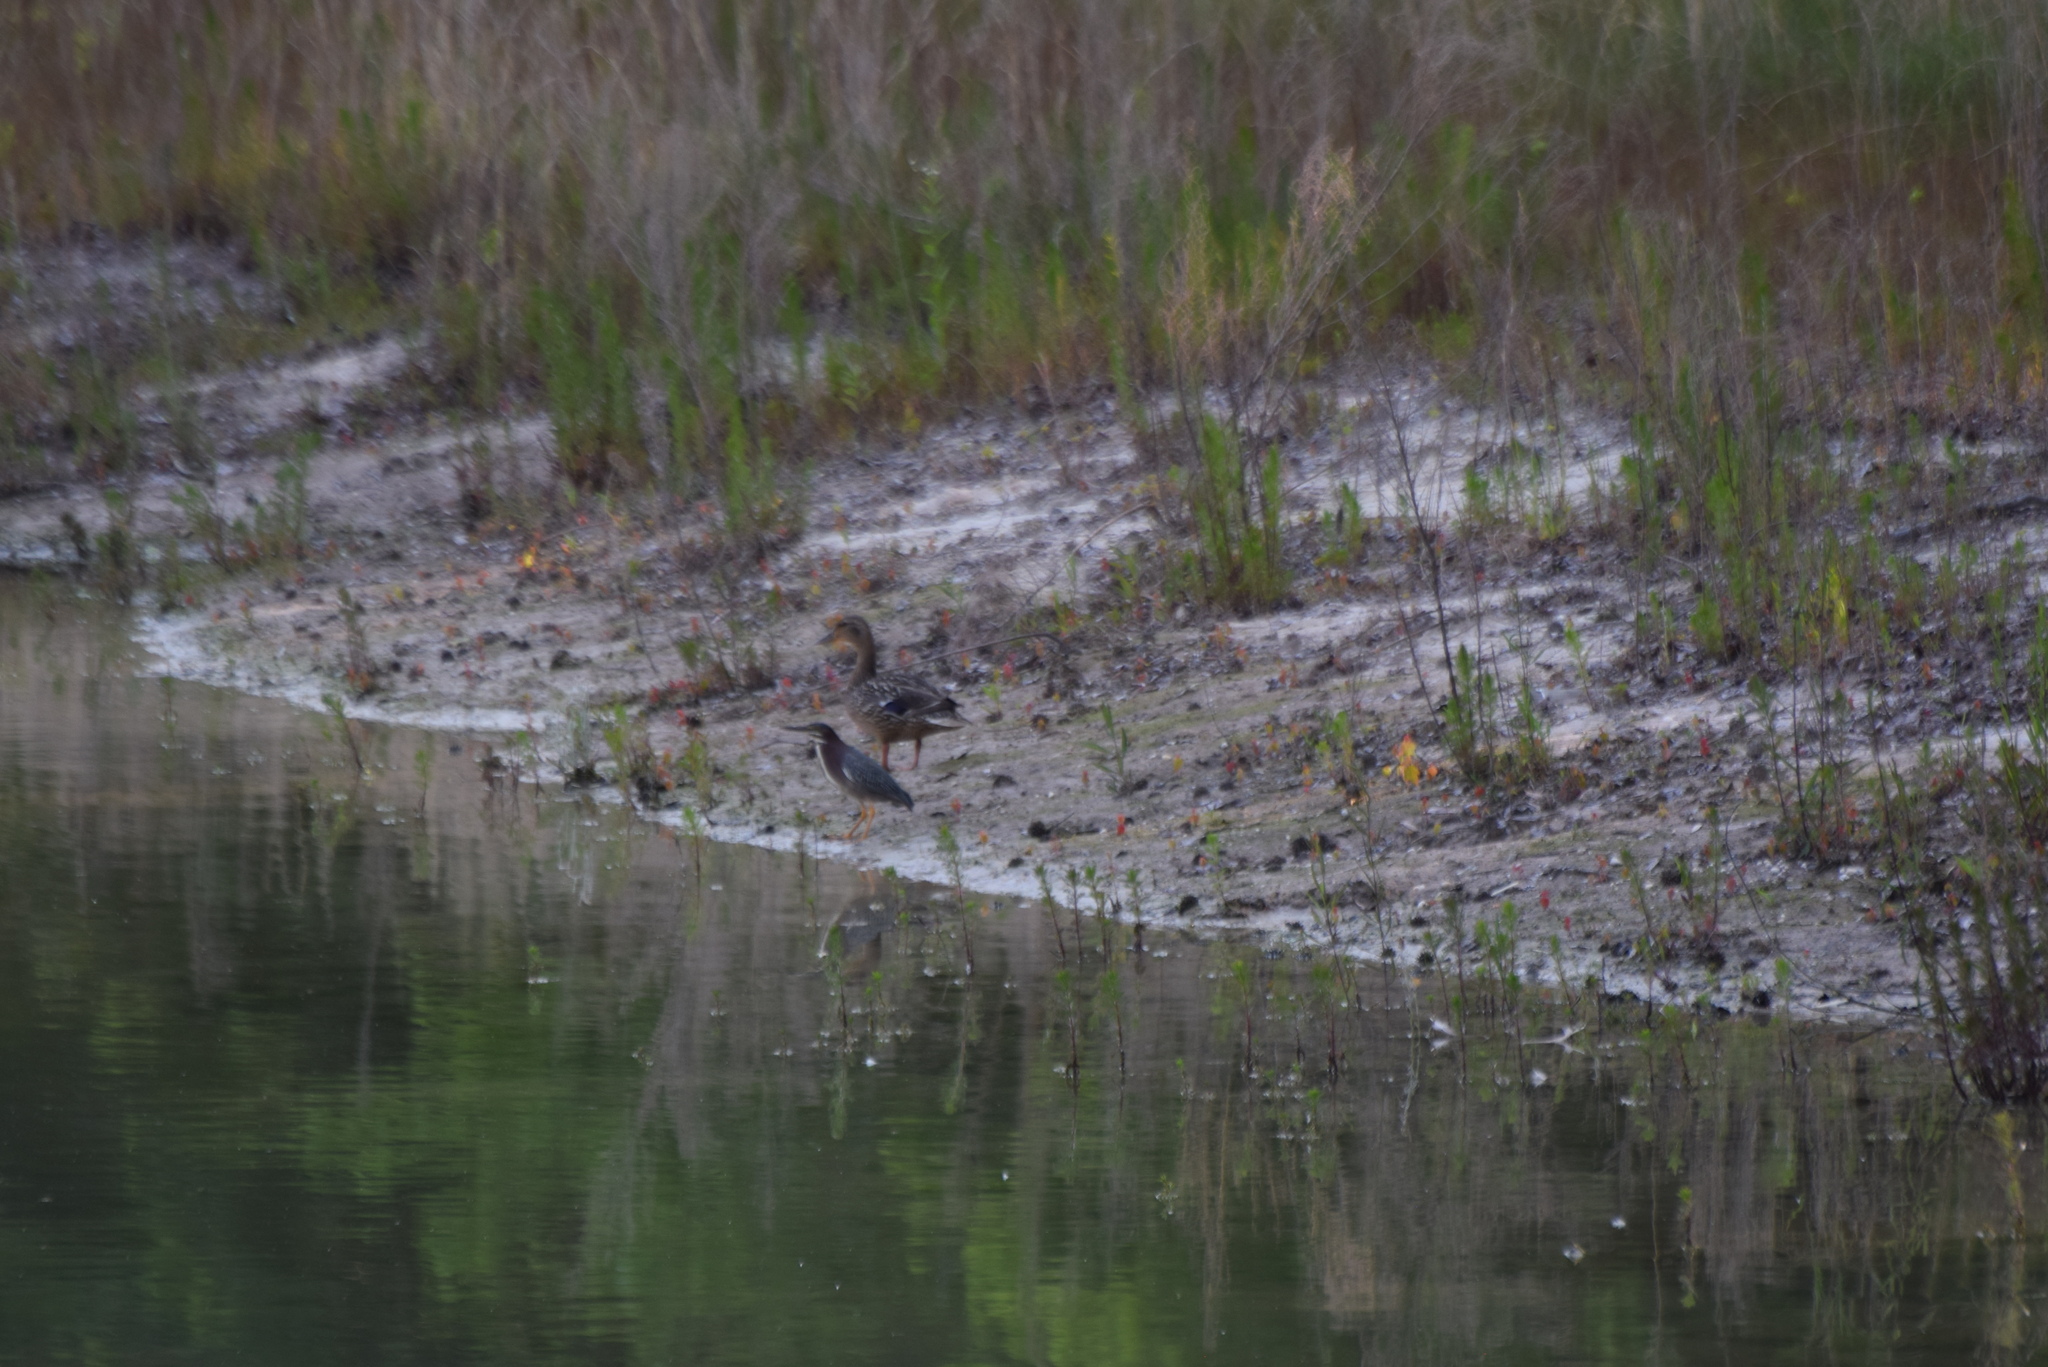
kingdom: Animalia
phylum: Chordata
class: Aves
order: Anseriformes
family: Anatidae
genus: Anas
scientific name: Anas platyrhynchos
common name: Mallard
